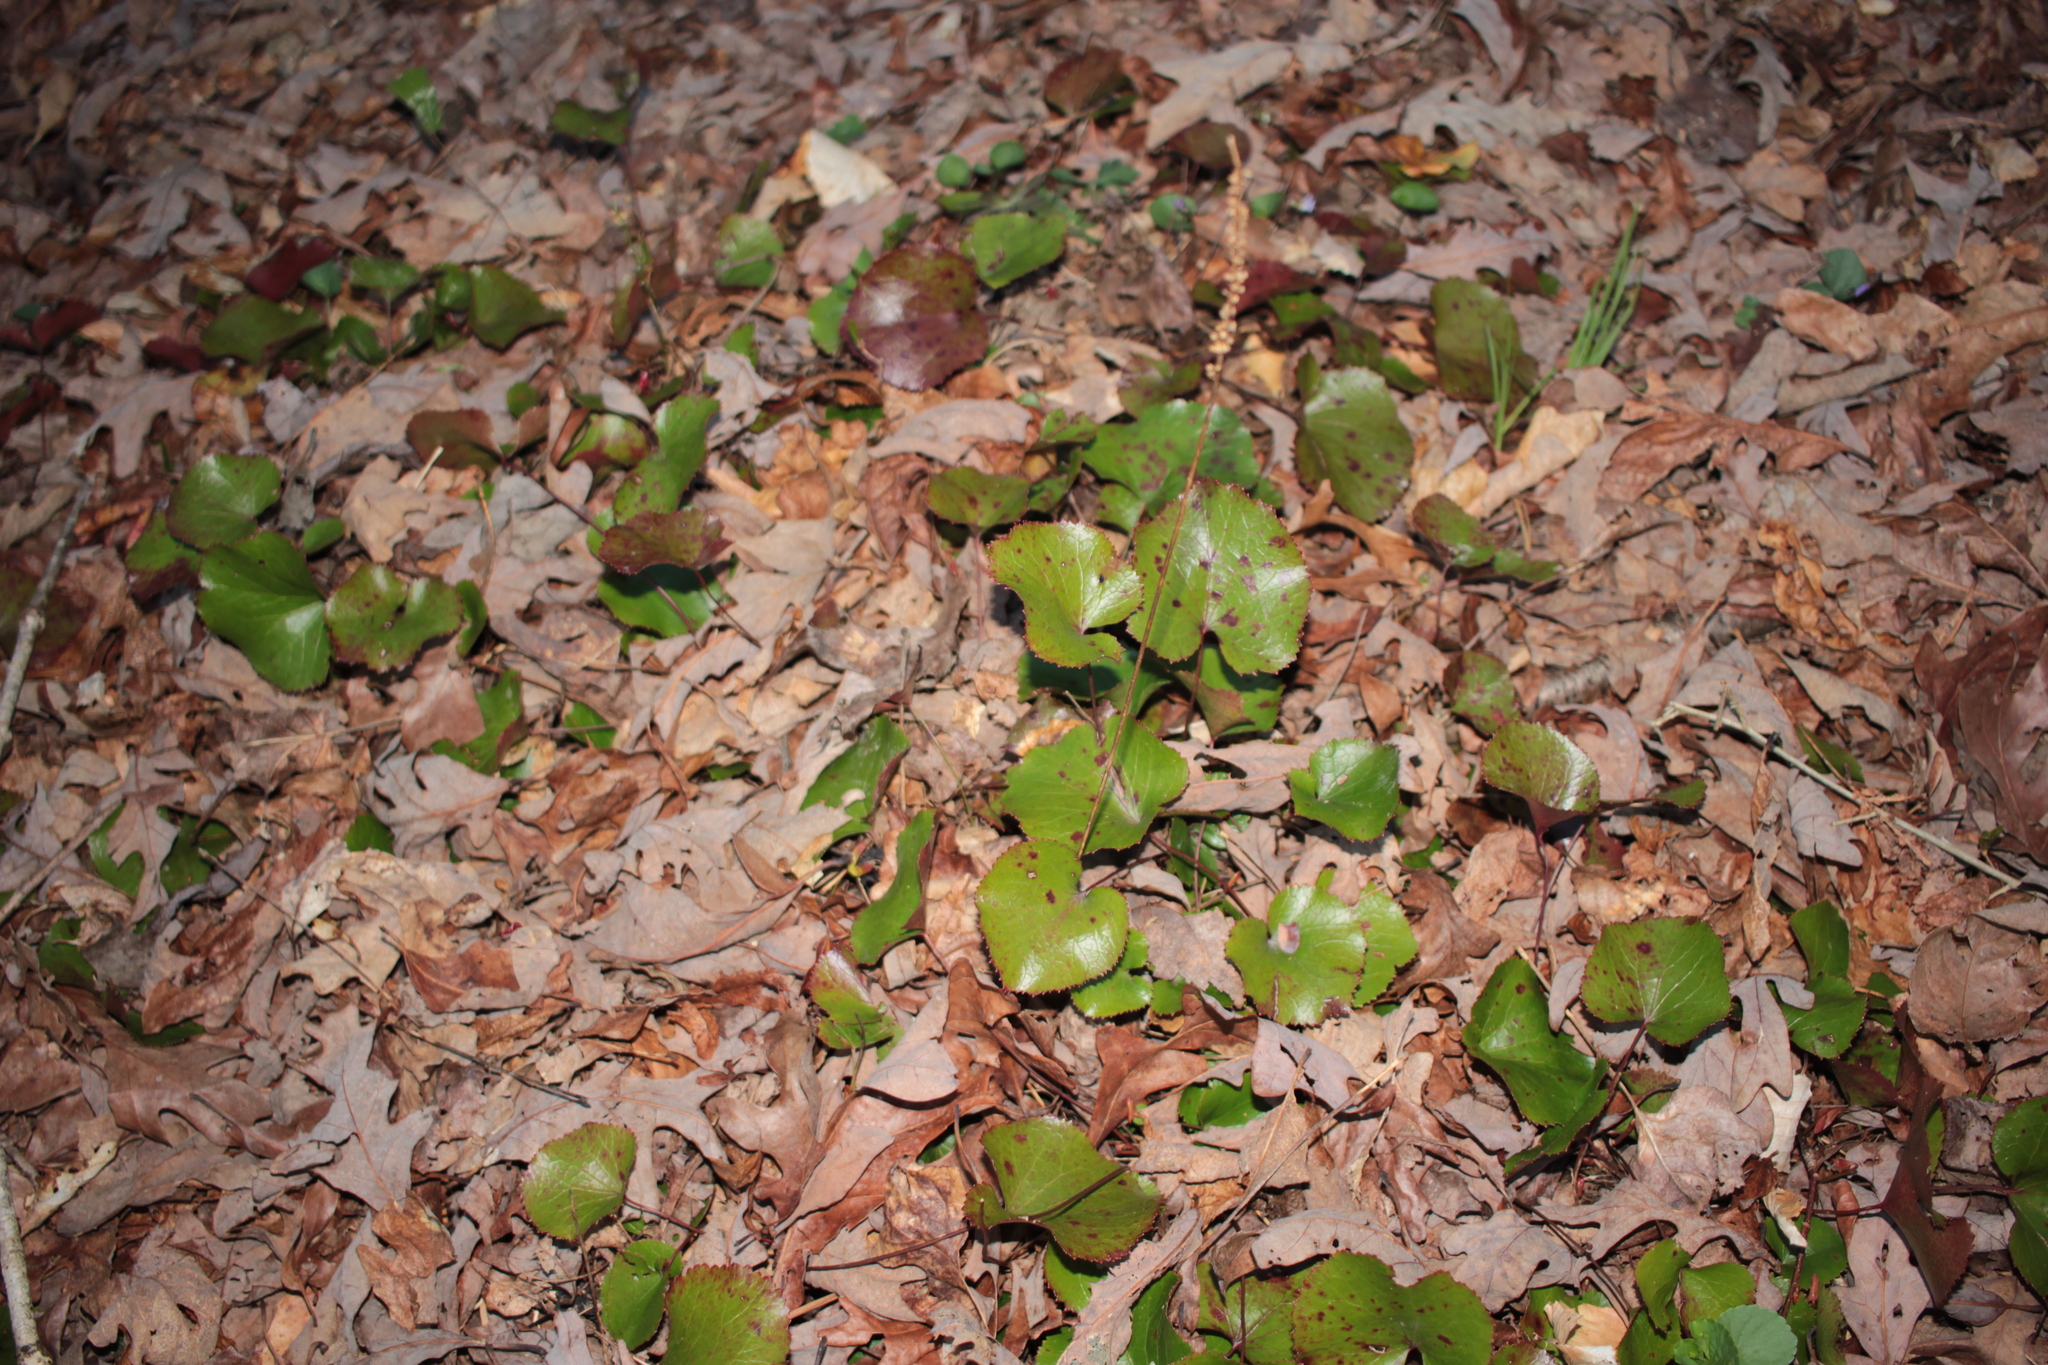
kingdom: Plantae
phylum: Tracheophyta
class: Magnoliopsida
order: Ericales
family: Diapensiaceae
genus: Galax
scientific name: Galax urceolata
